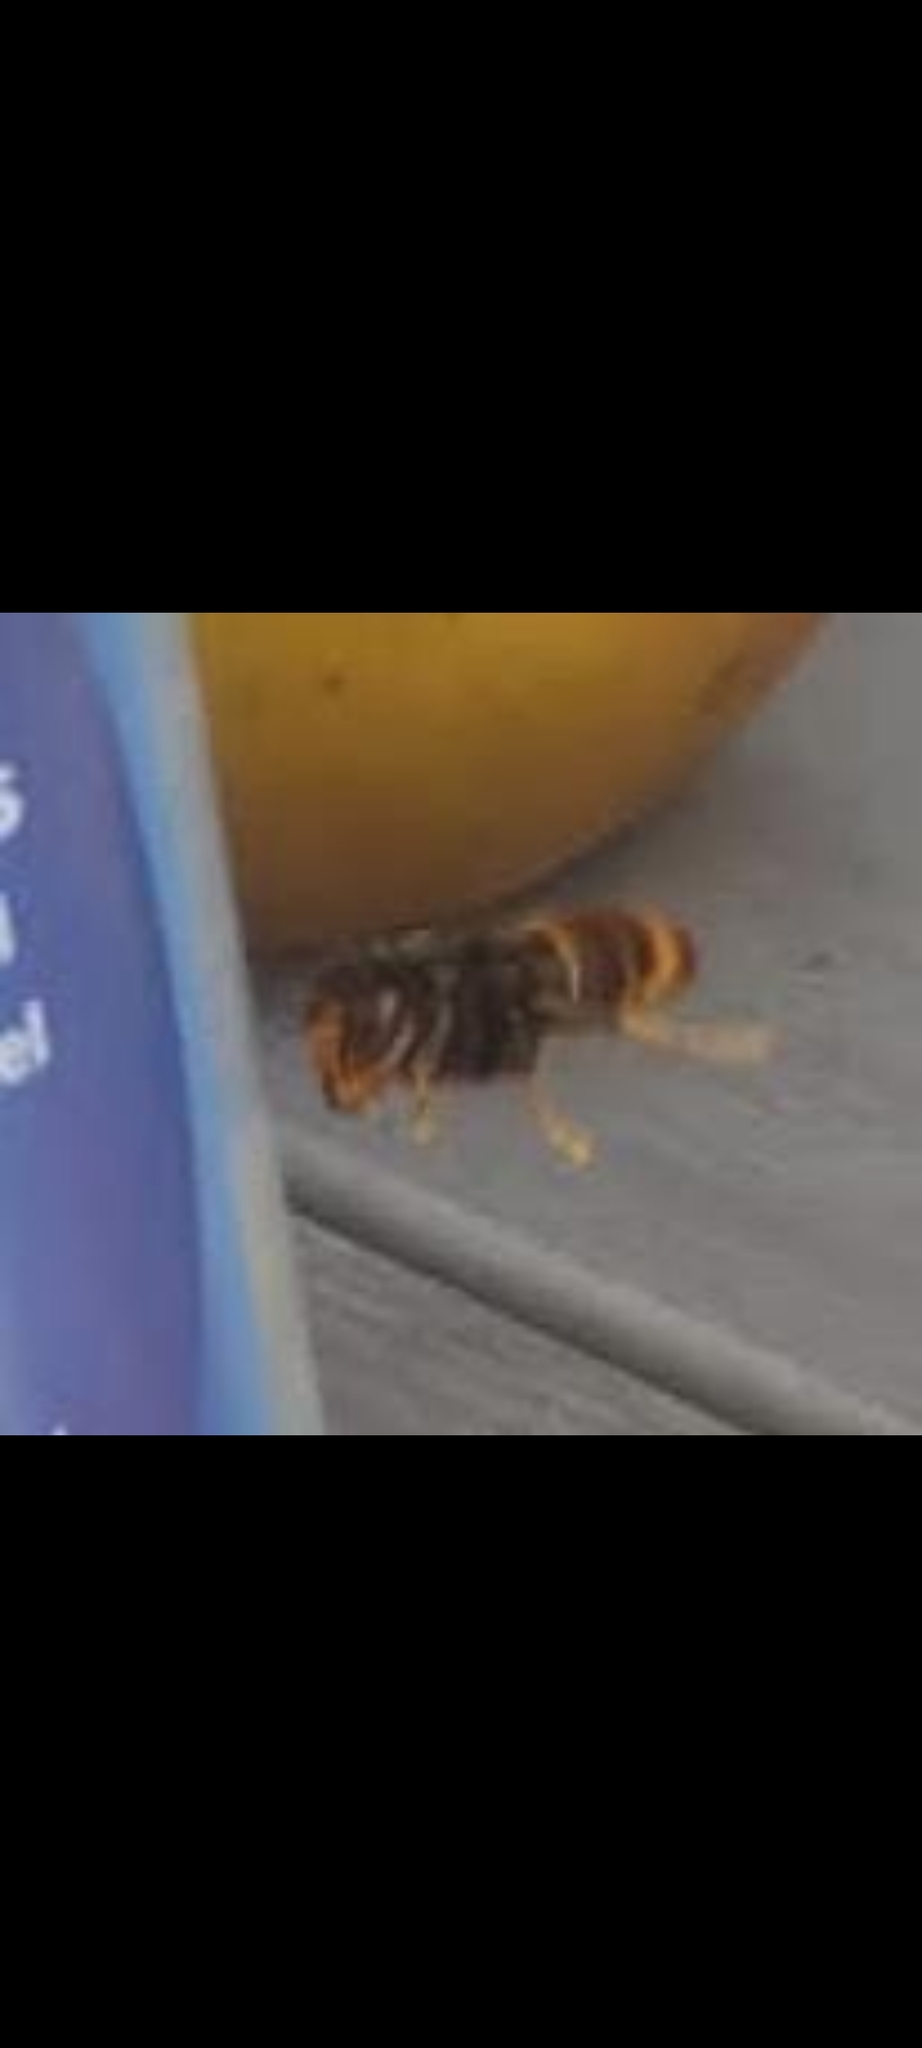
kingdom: Animalia
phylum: Arthropoda
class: Insecta
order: Hymenoptera
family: Vespidae
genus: Vespa
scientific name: Vespa velutina
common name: Asian hornet
